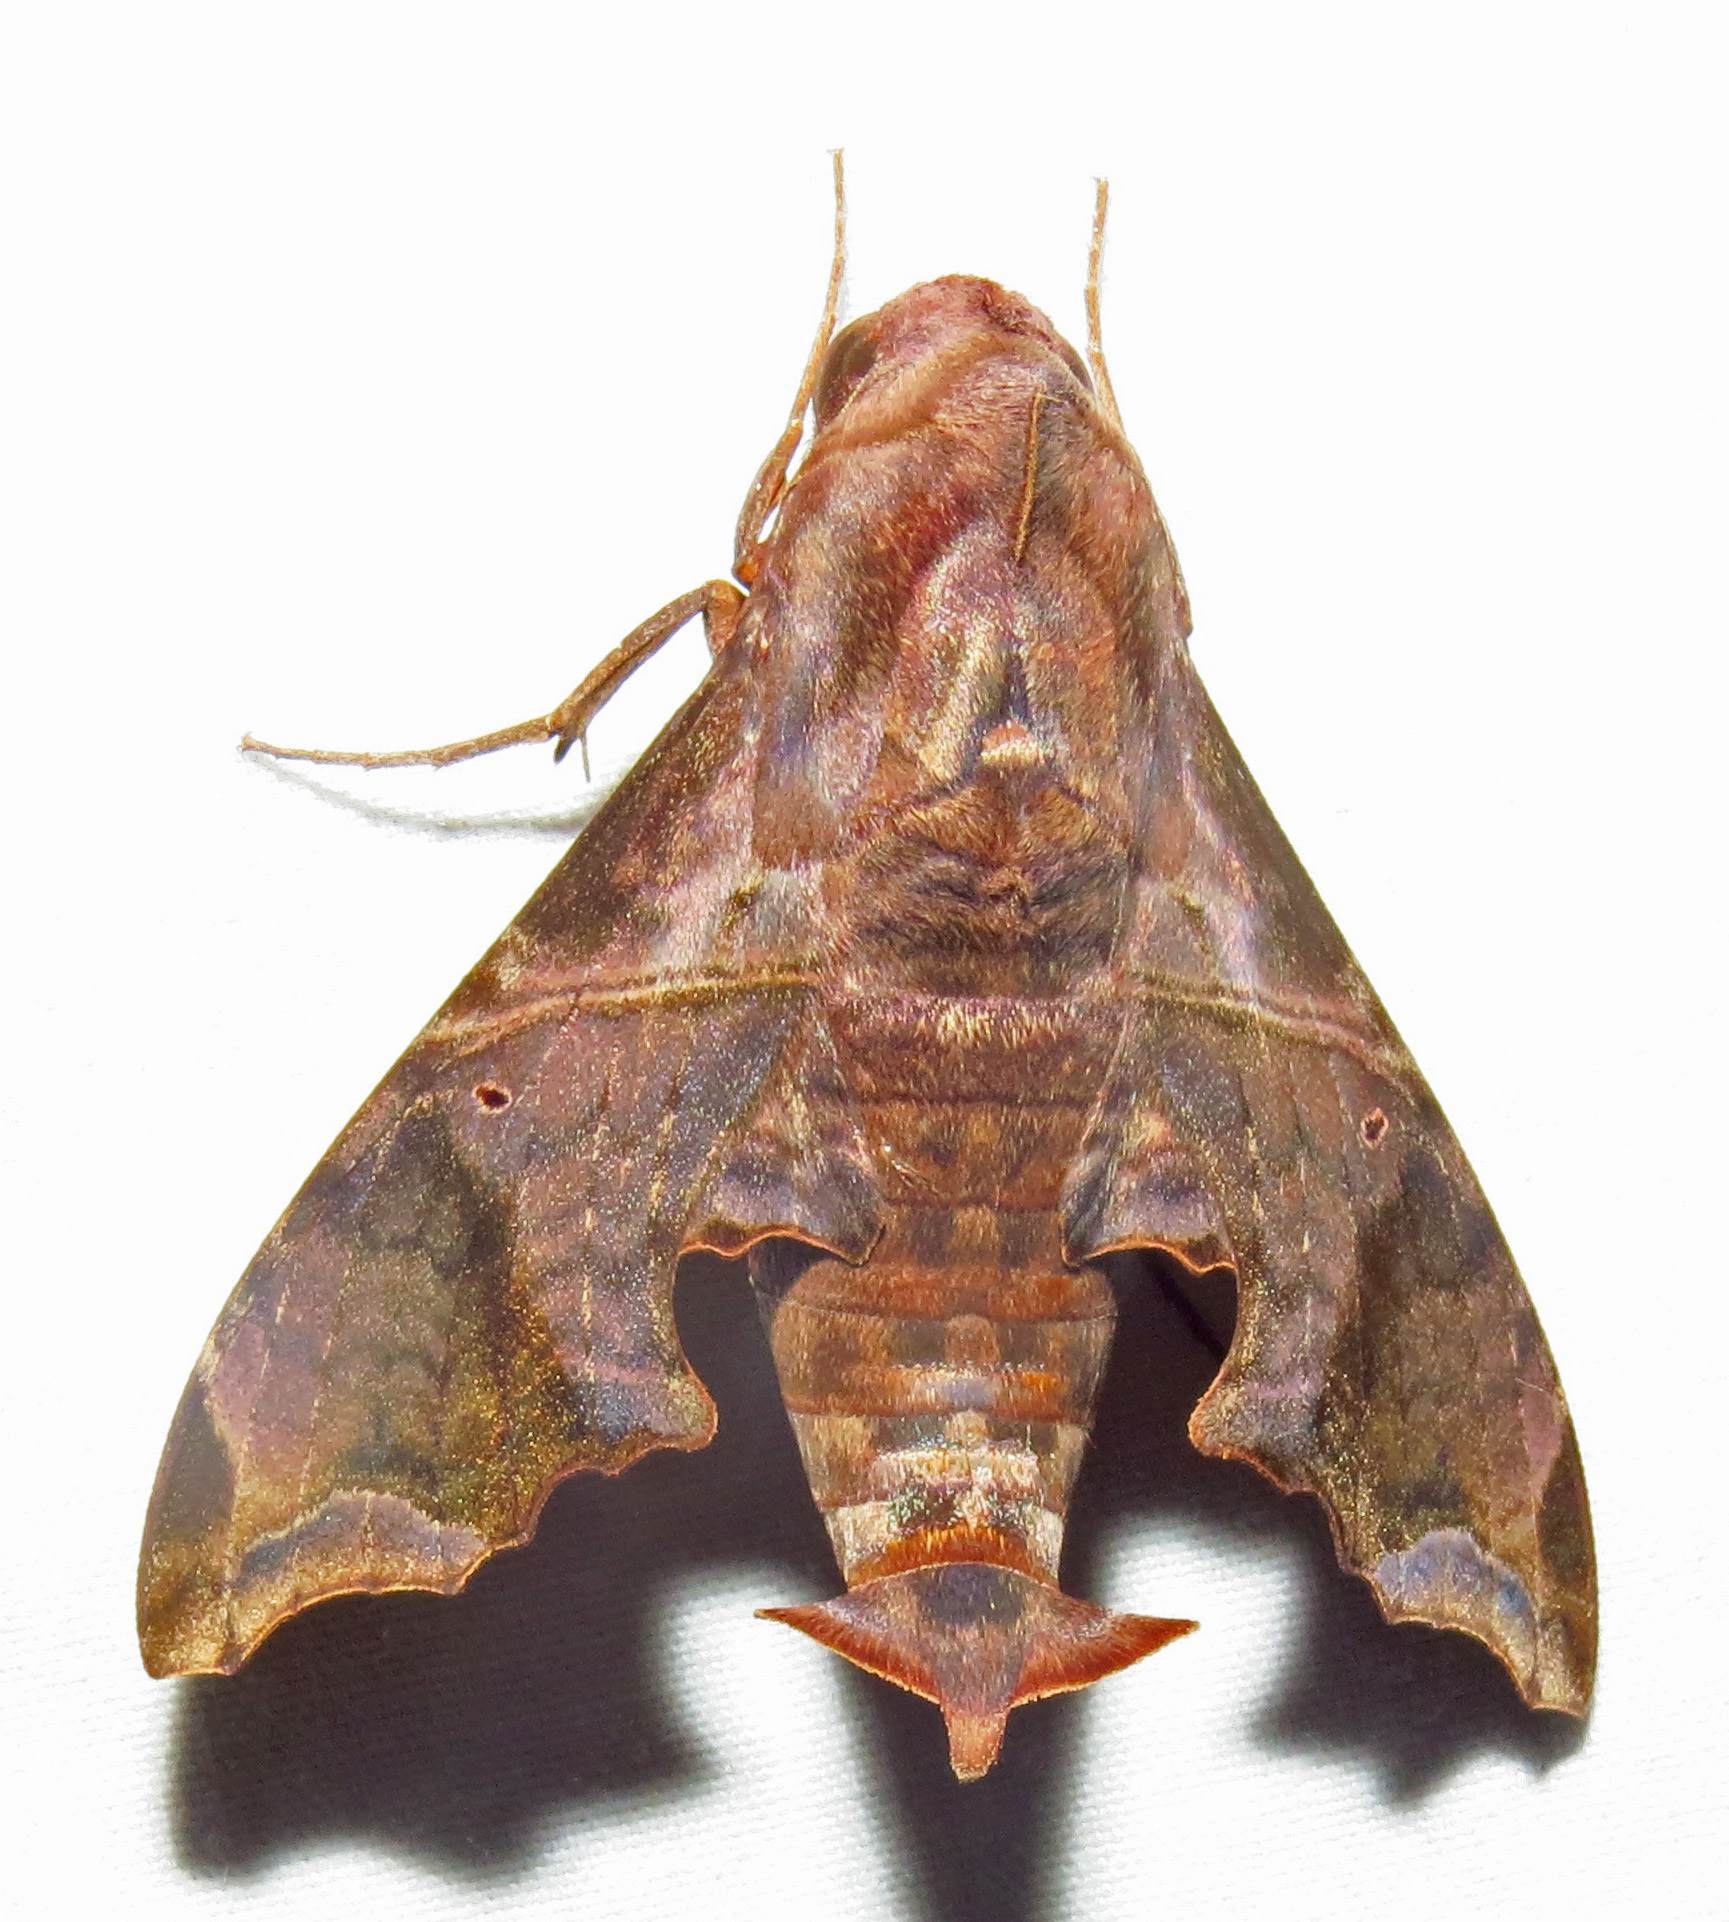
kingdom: Animalia
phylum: Arthropoda
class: Insecta
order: Lepidoptera
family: Sphingidae
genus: Enyo
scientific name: Enyo lugubris
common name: Mournful sphinx
